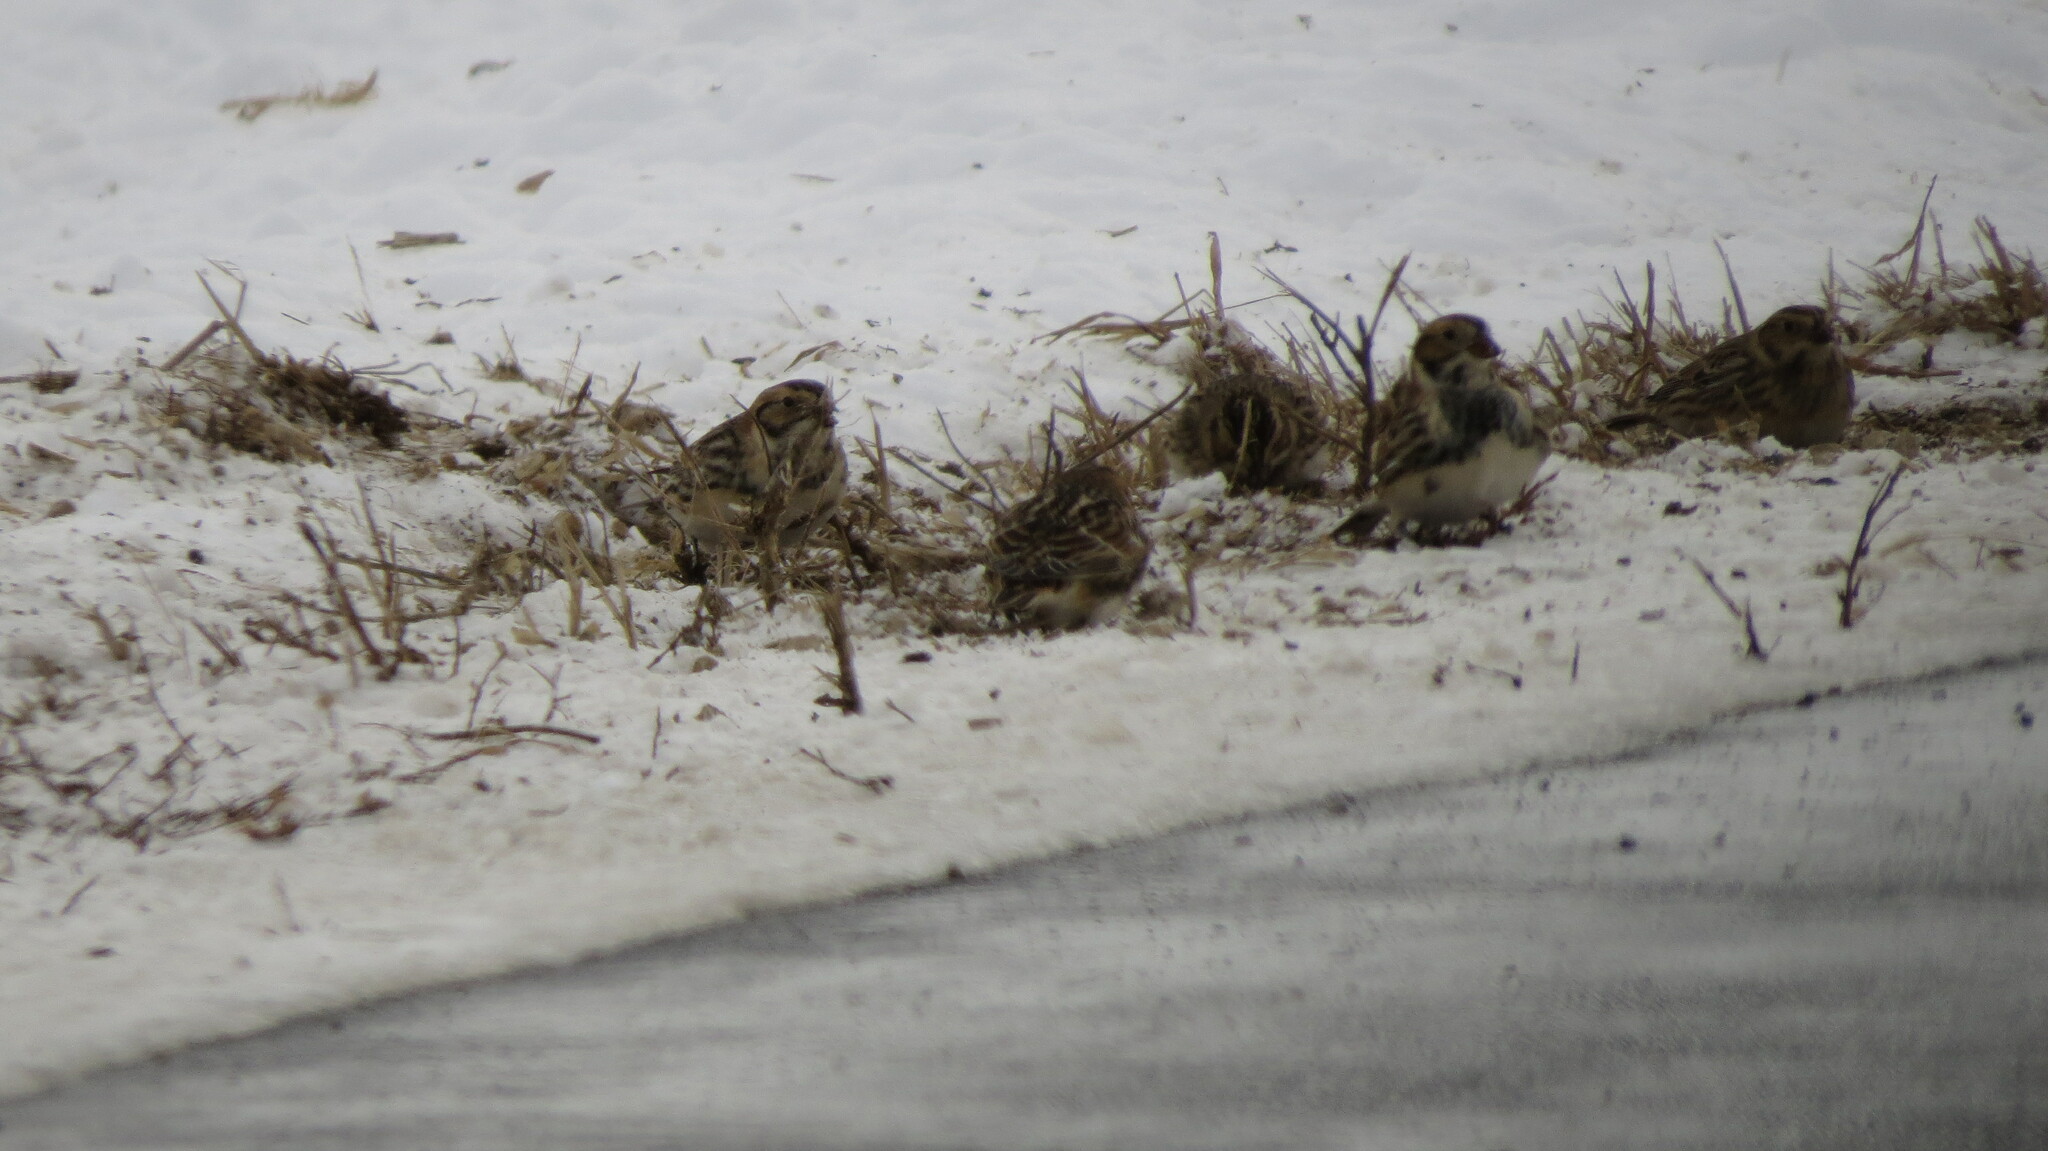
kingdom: Animalia
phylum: Chordata
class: Aves
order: Passeriformes
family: Calcariidae
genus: Calcarius
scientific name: Calcarius lapponicus
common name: Lapland longspur
